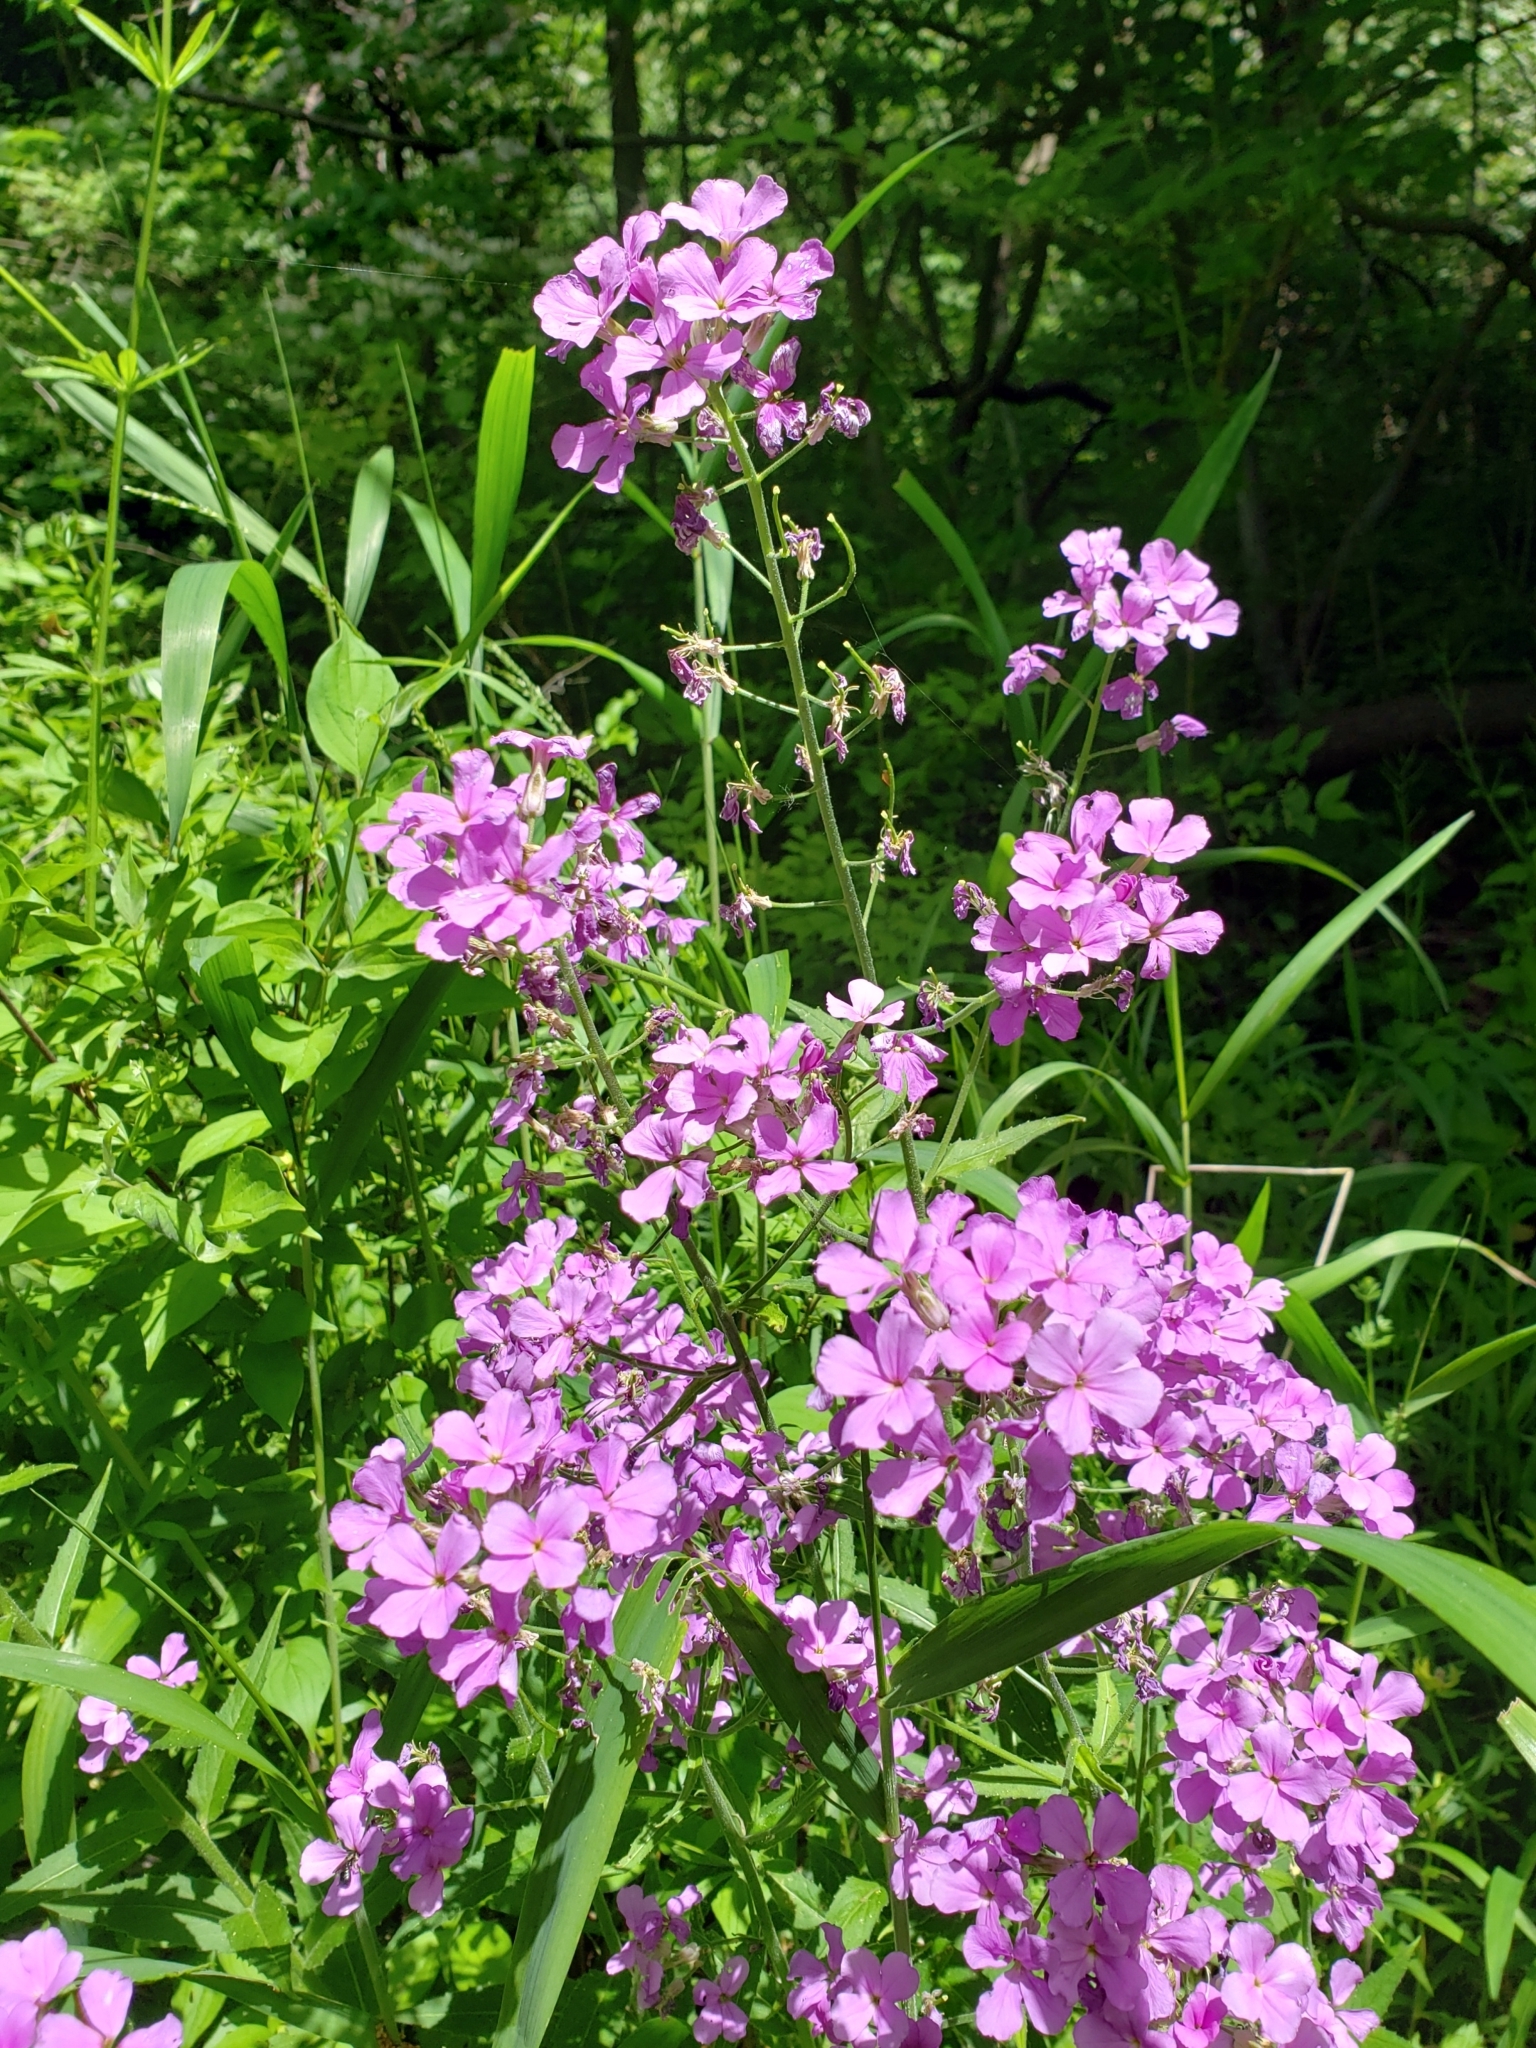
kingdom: Plantae
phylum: Tracheophyta
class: Magnoliopsida
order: Brassicales
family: Brassicaceae
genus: Hesperis
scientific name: Hesperis matronalis
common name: Dame's-violet
